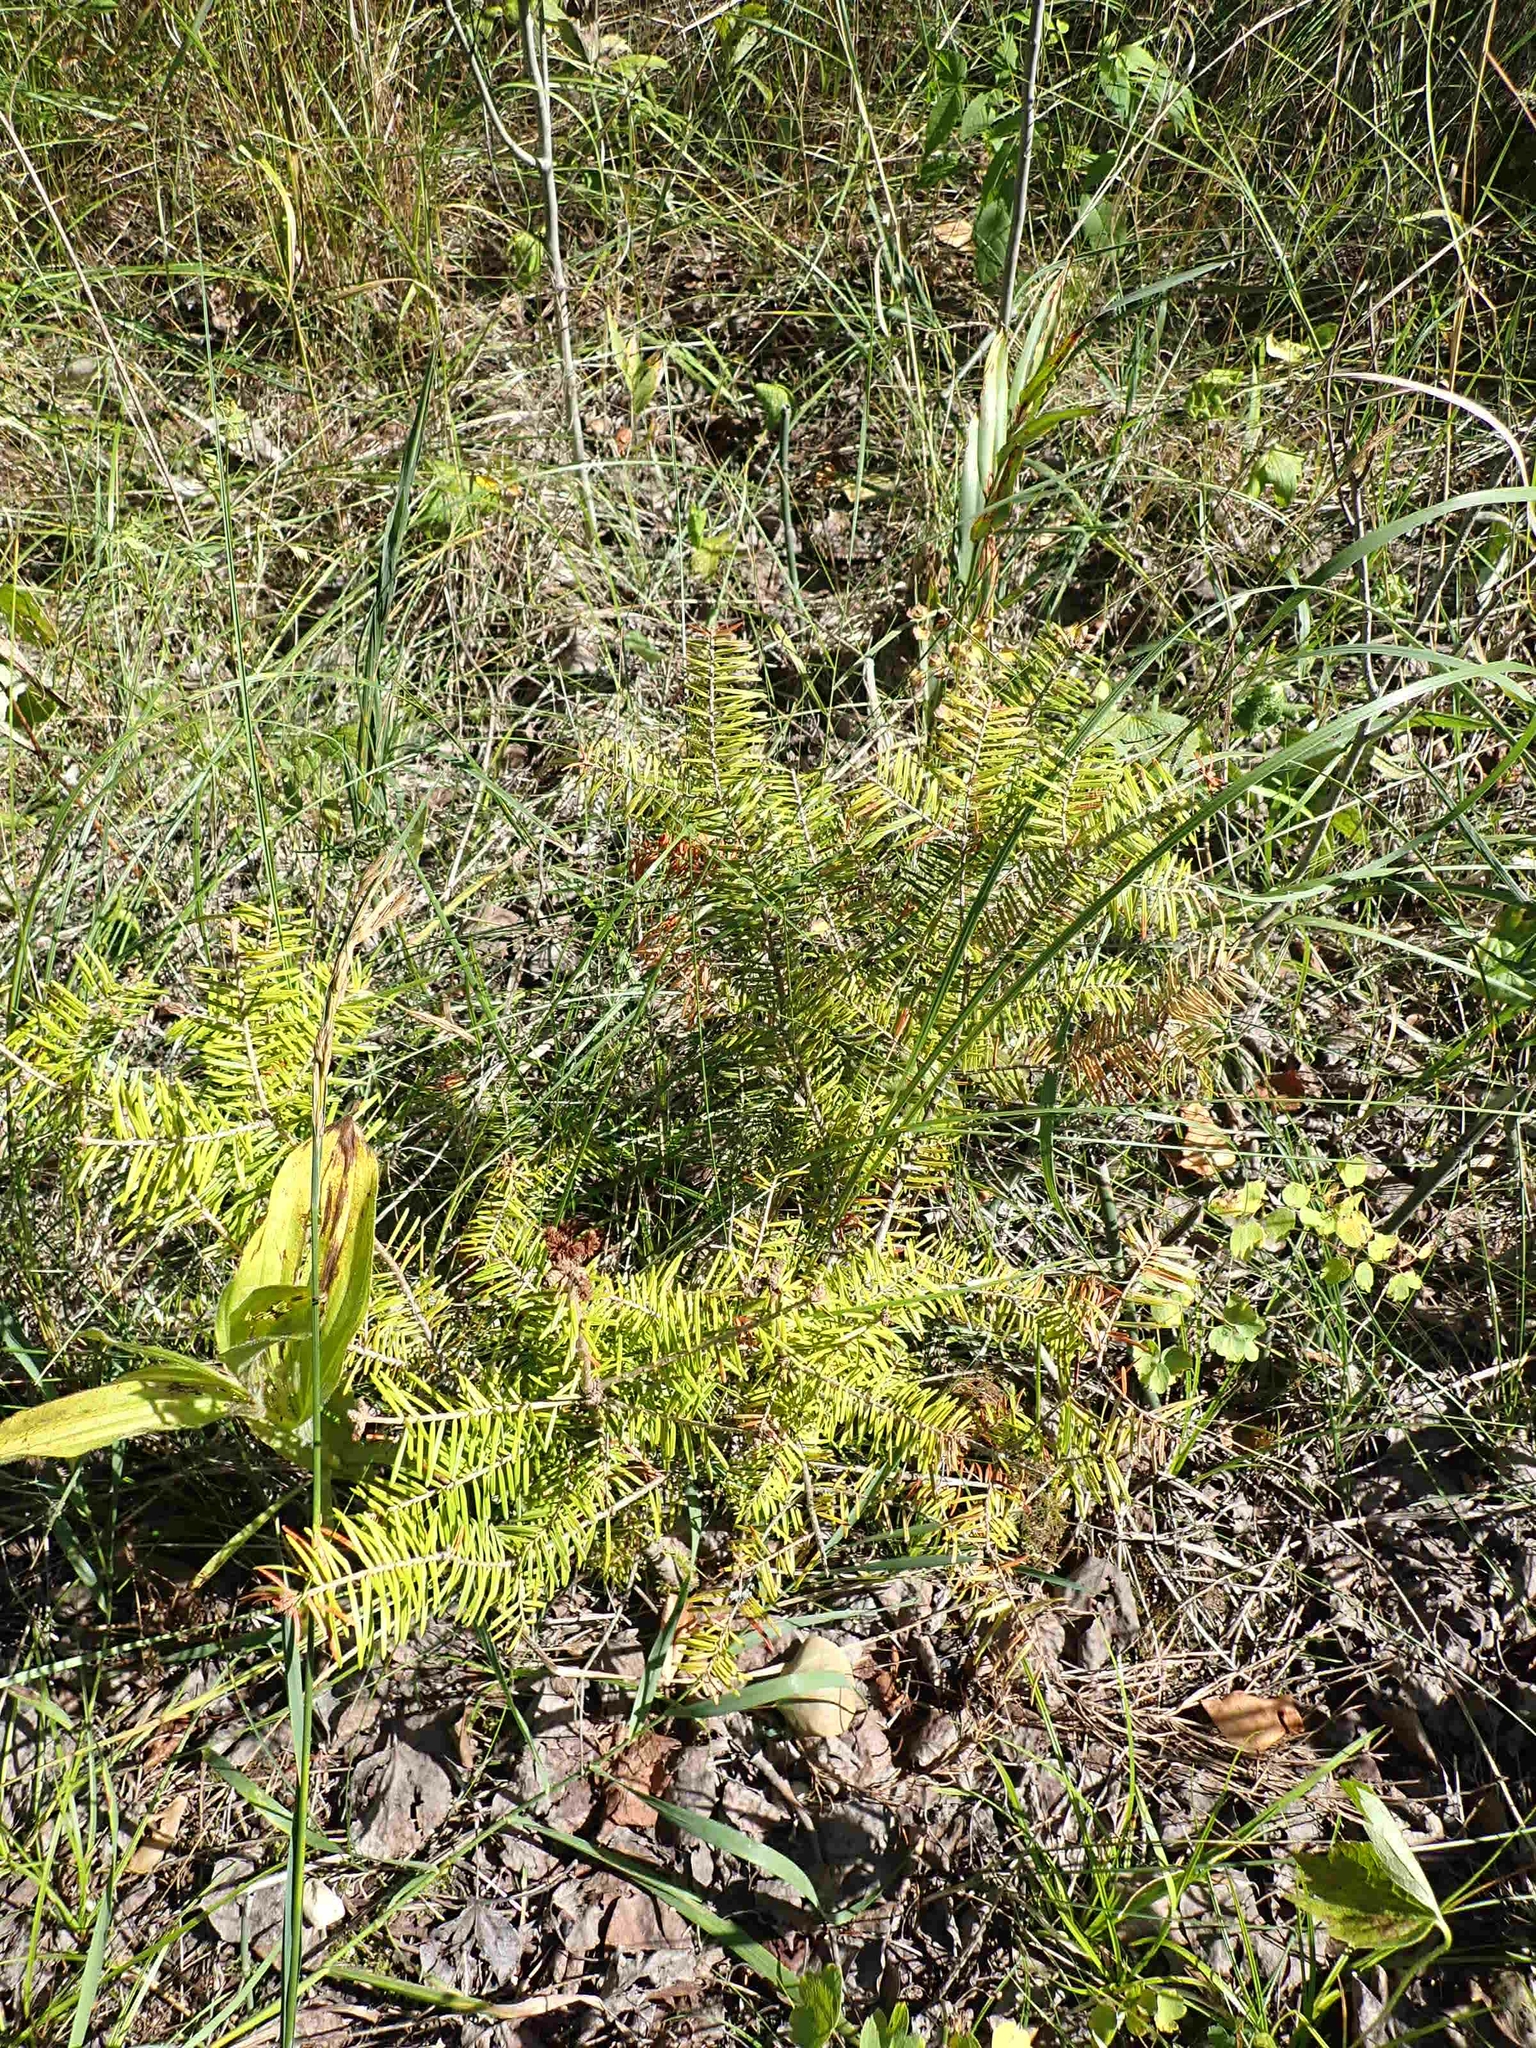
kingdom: Plantae
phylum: Tracheophyta
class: Pinopsida
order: Pinales
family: Pinaceae
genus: Abies
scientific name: Abies balsamea
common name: Balsam fir
